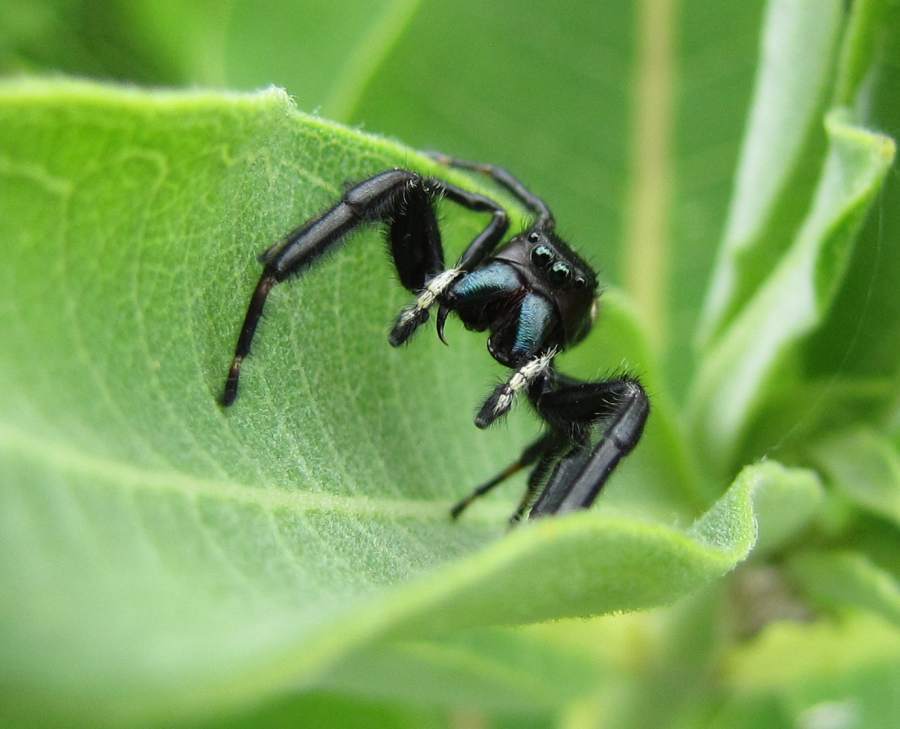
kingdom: Animalia
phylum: Arthropoda
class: Arachnida
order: Araneae
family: Salticidae
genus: Phidippus
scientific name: Phidippus clarus
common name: Brilliant jumping spider
